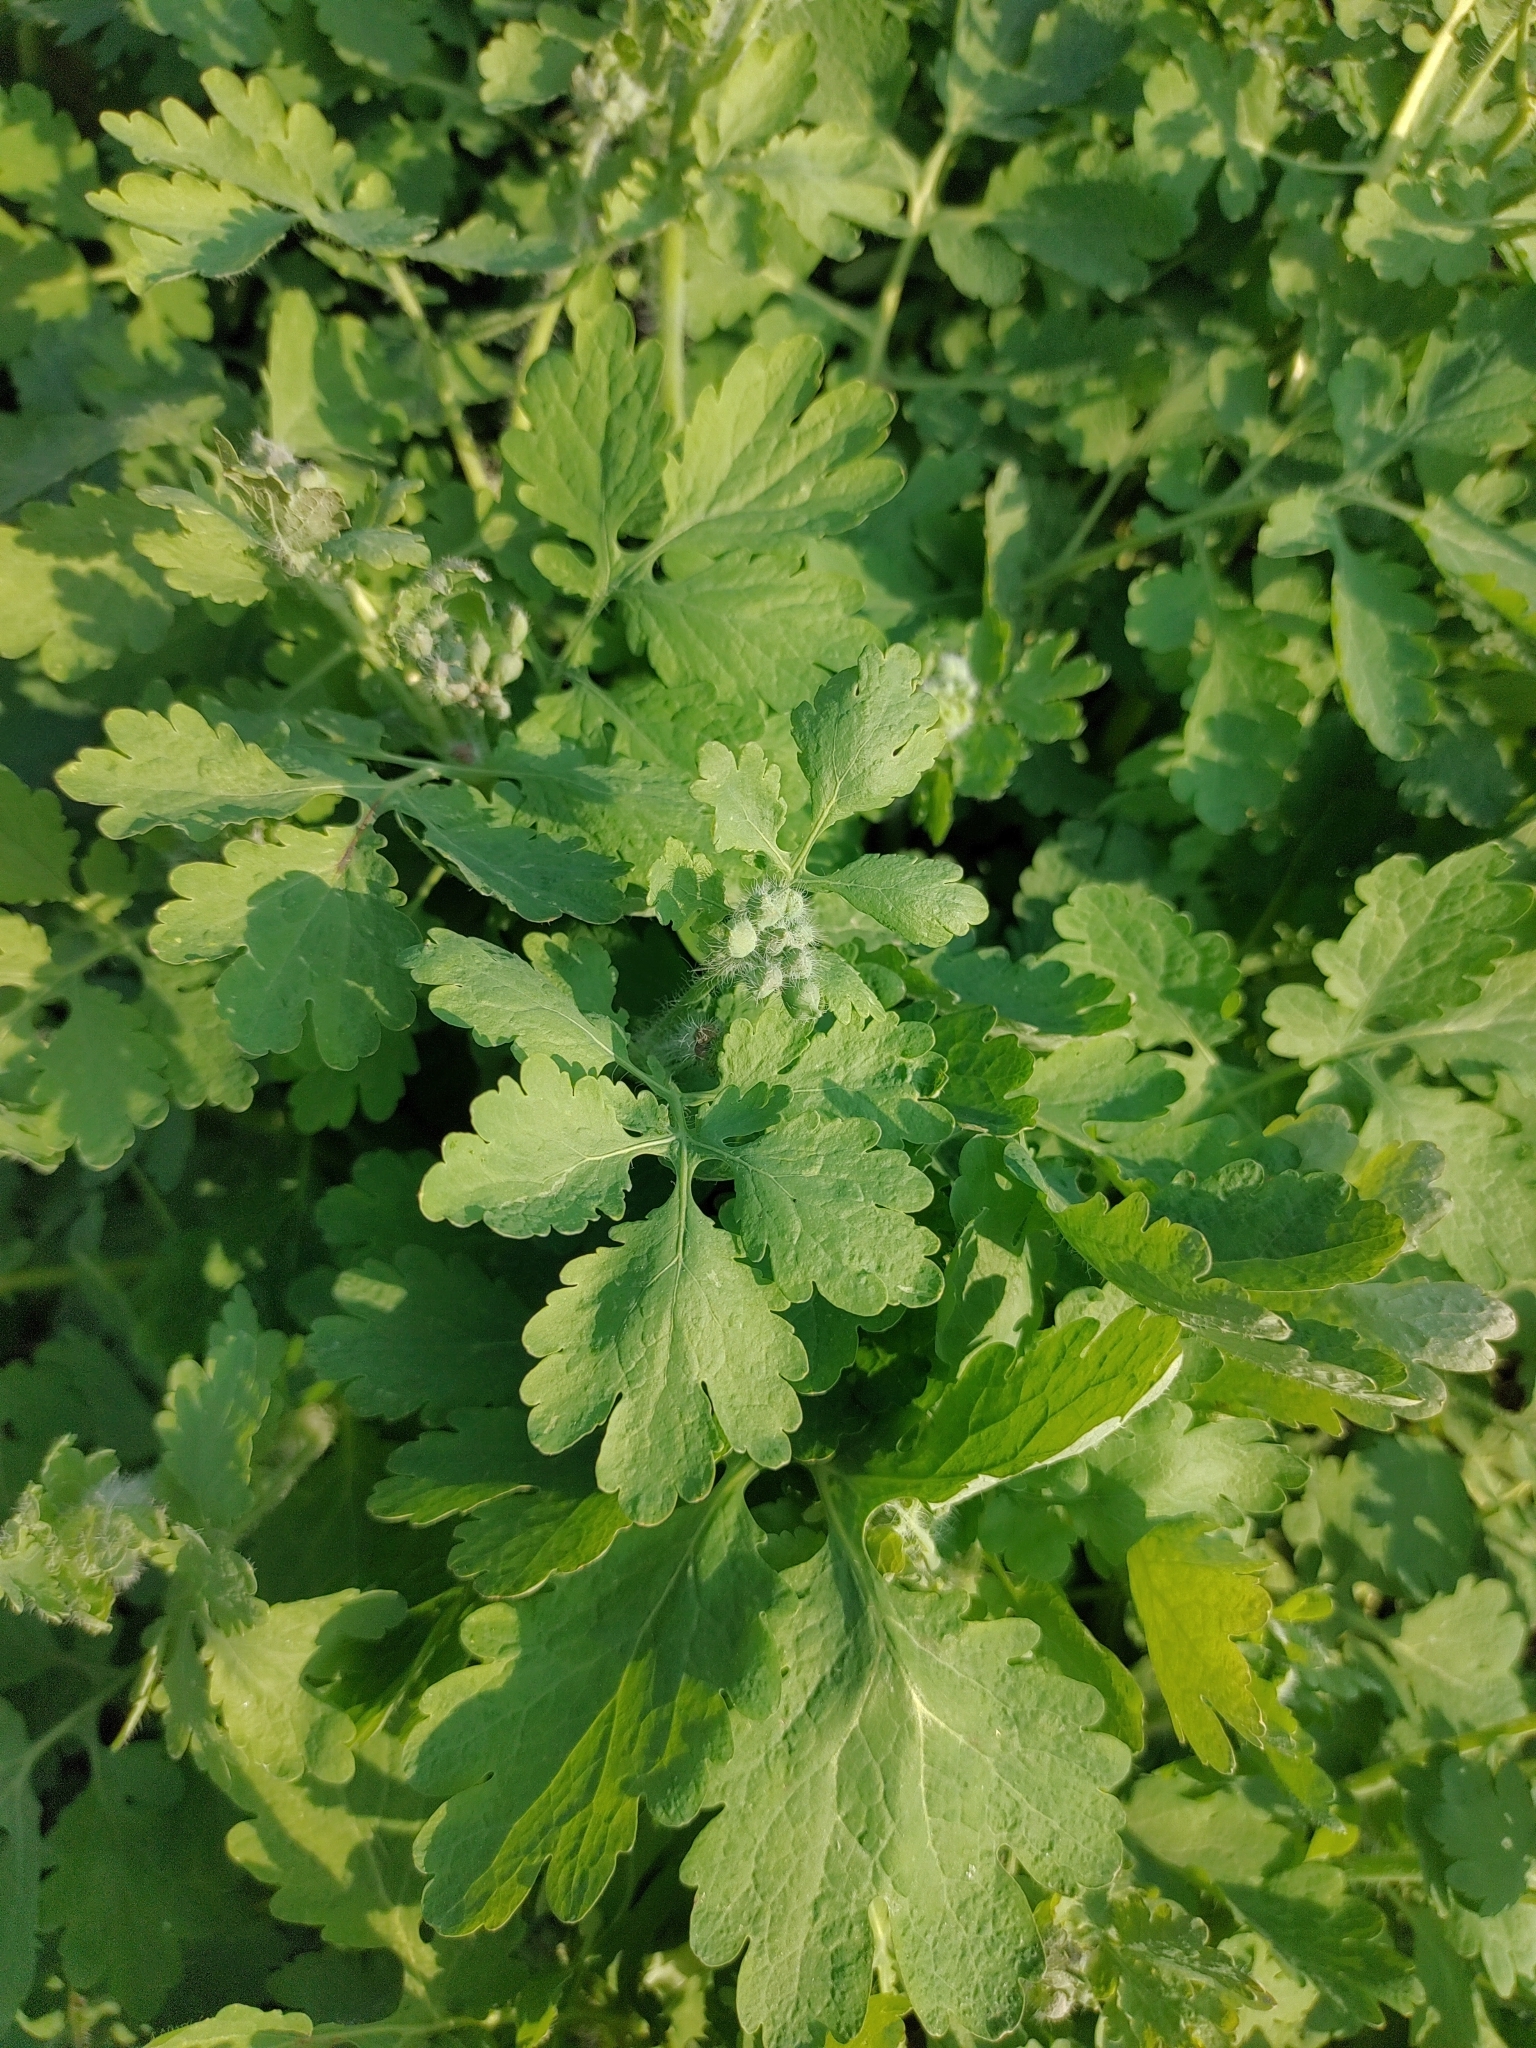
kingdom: Plantae
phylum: Tracheophyta
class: Magnoliopsida
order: Ranunculales
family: Papaveraceae
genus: Chelidonium
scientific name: Chelidonium majus
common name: Greater celandine
